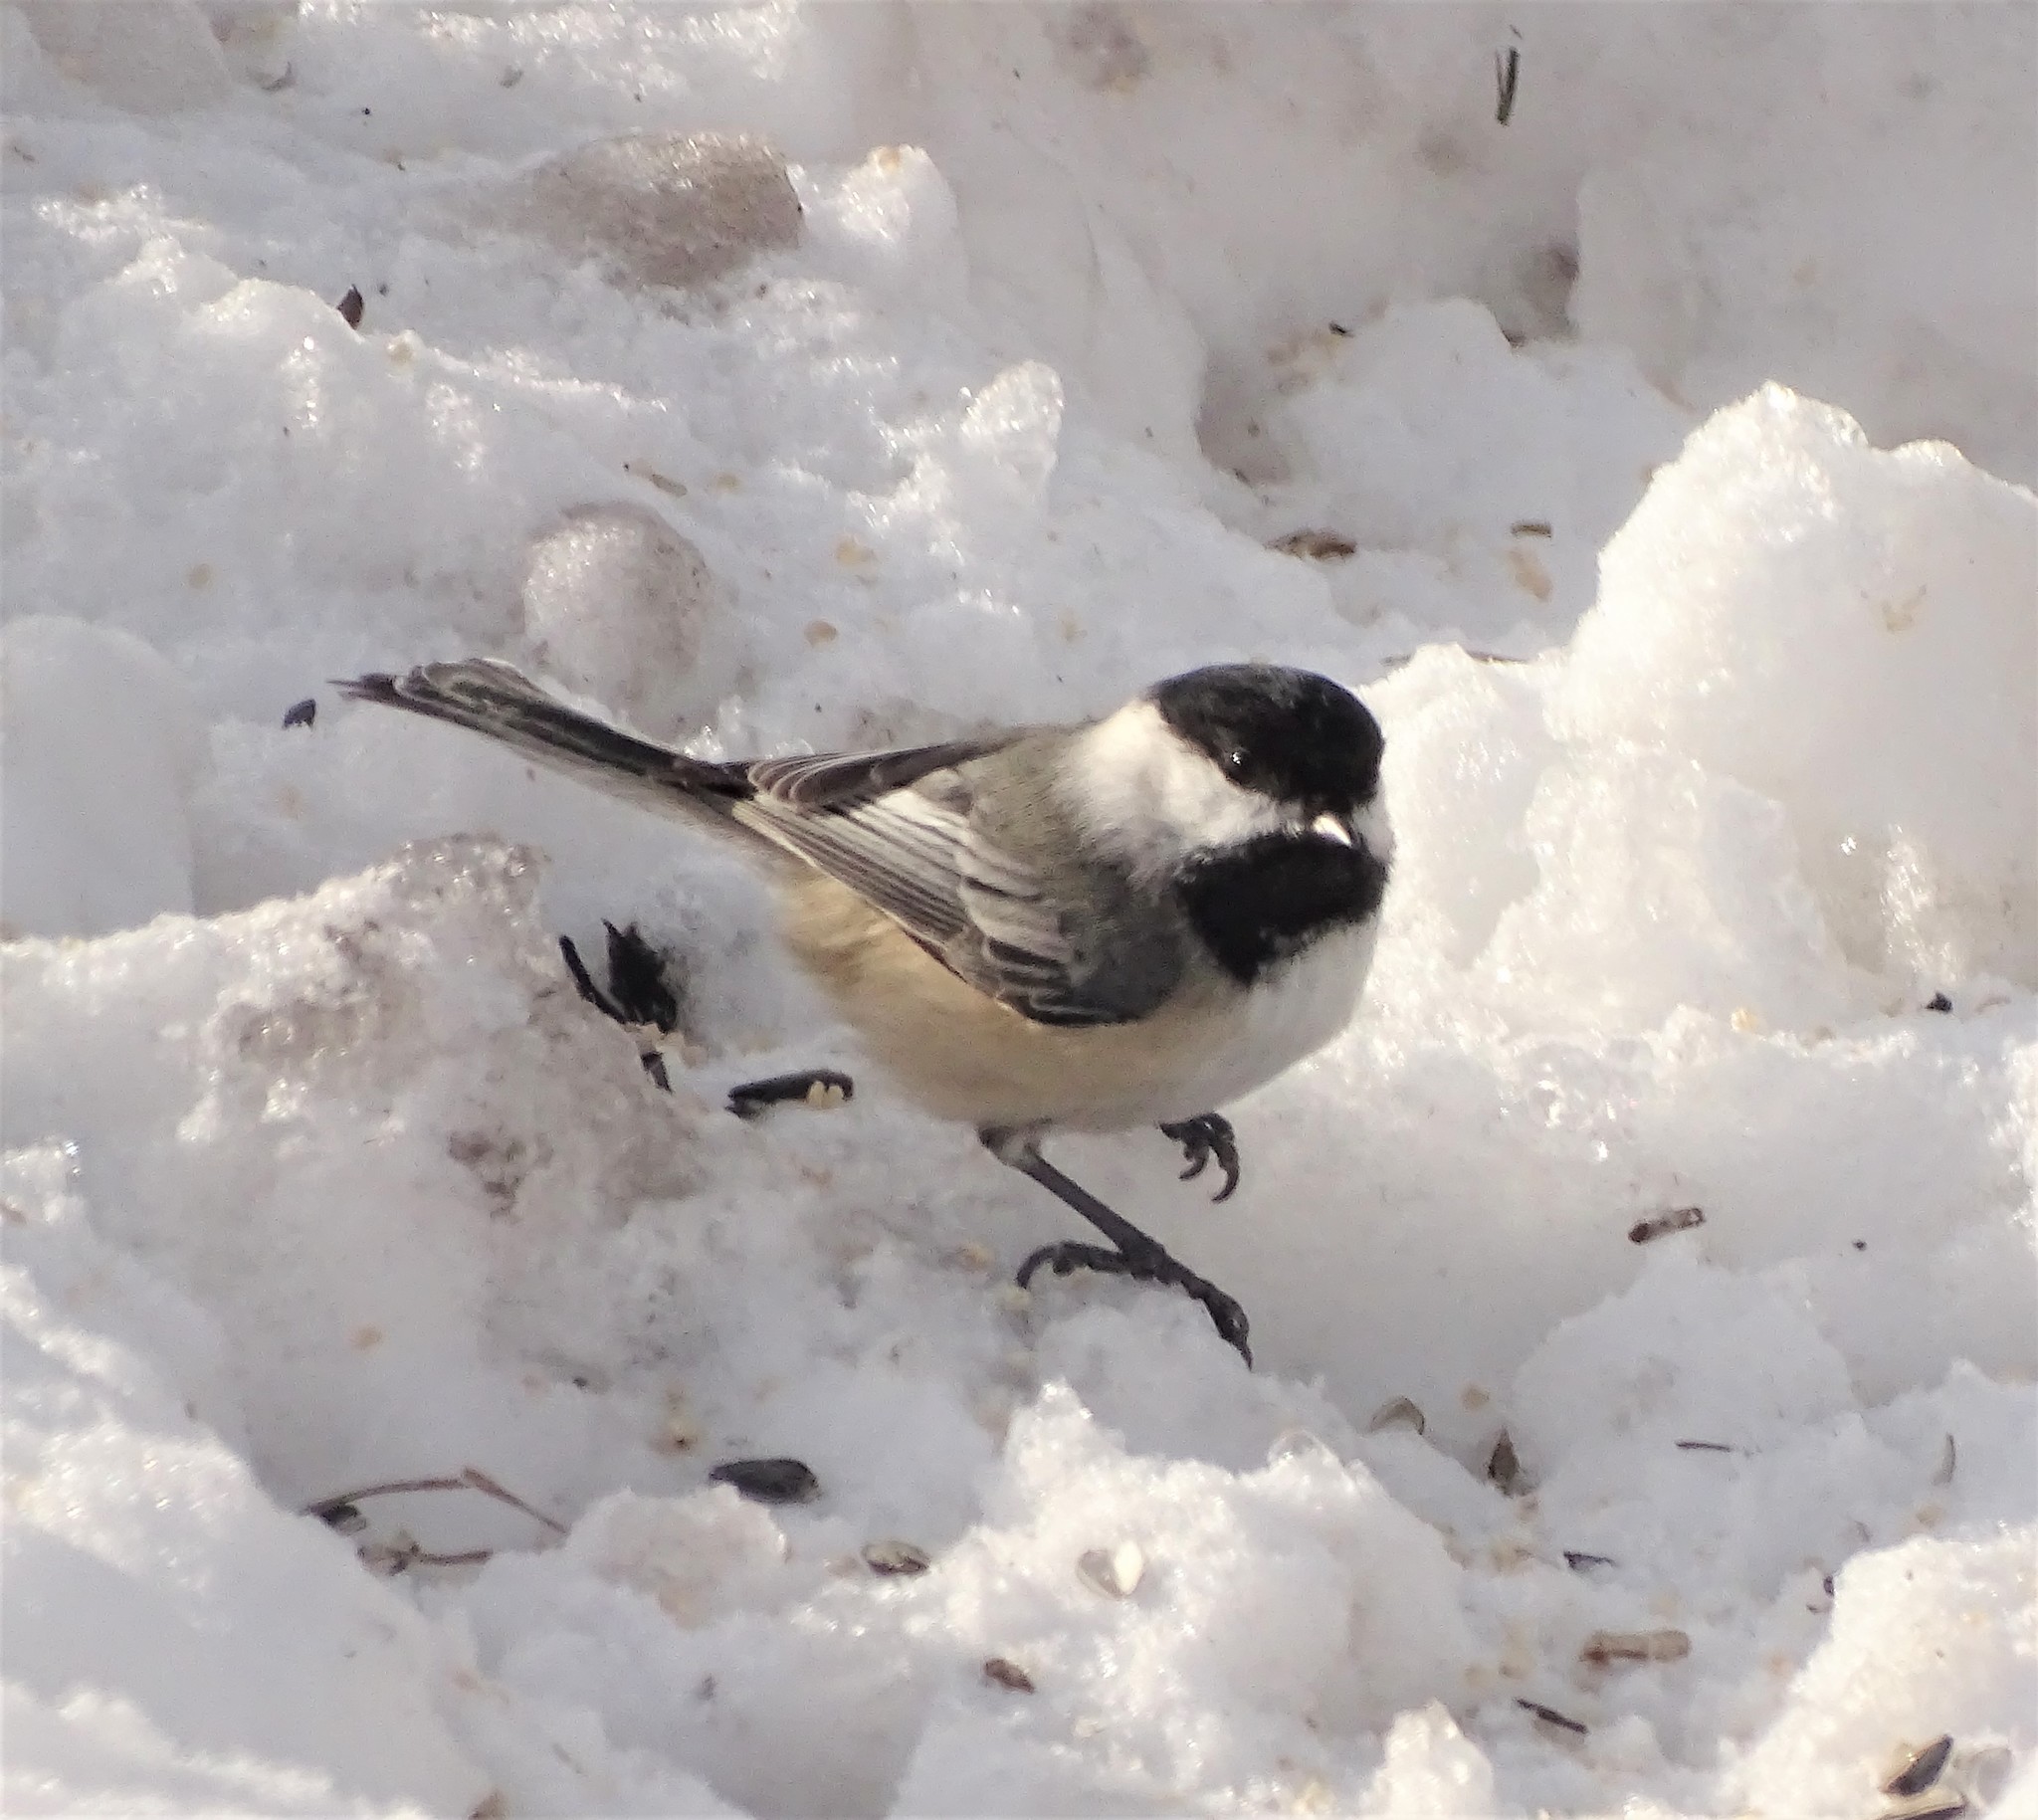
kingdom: Animalia
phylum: Chordata
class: Aves
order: Passeriformes
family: Paridae
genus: Poecile
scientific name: Poecile atricapillus
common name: Black-capped chickadee
